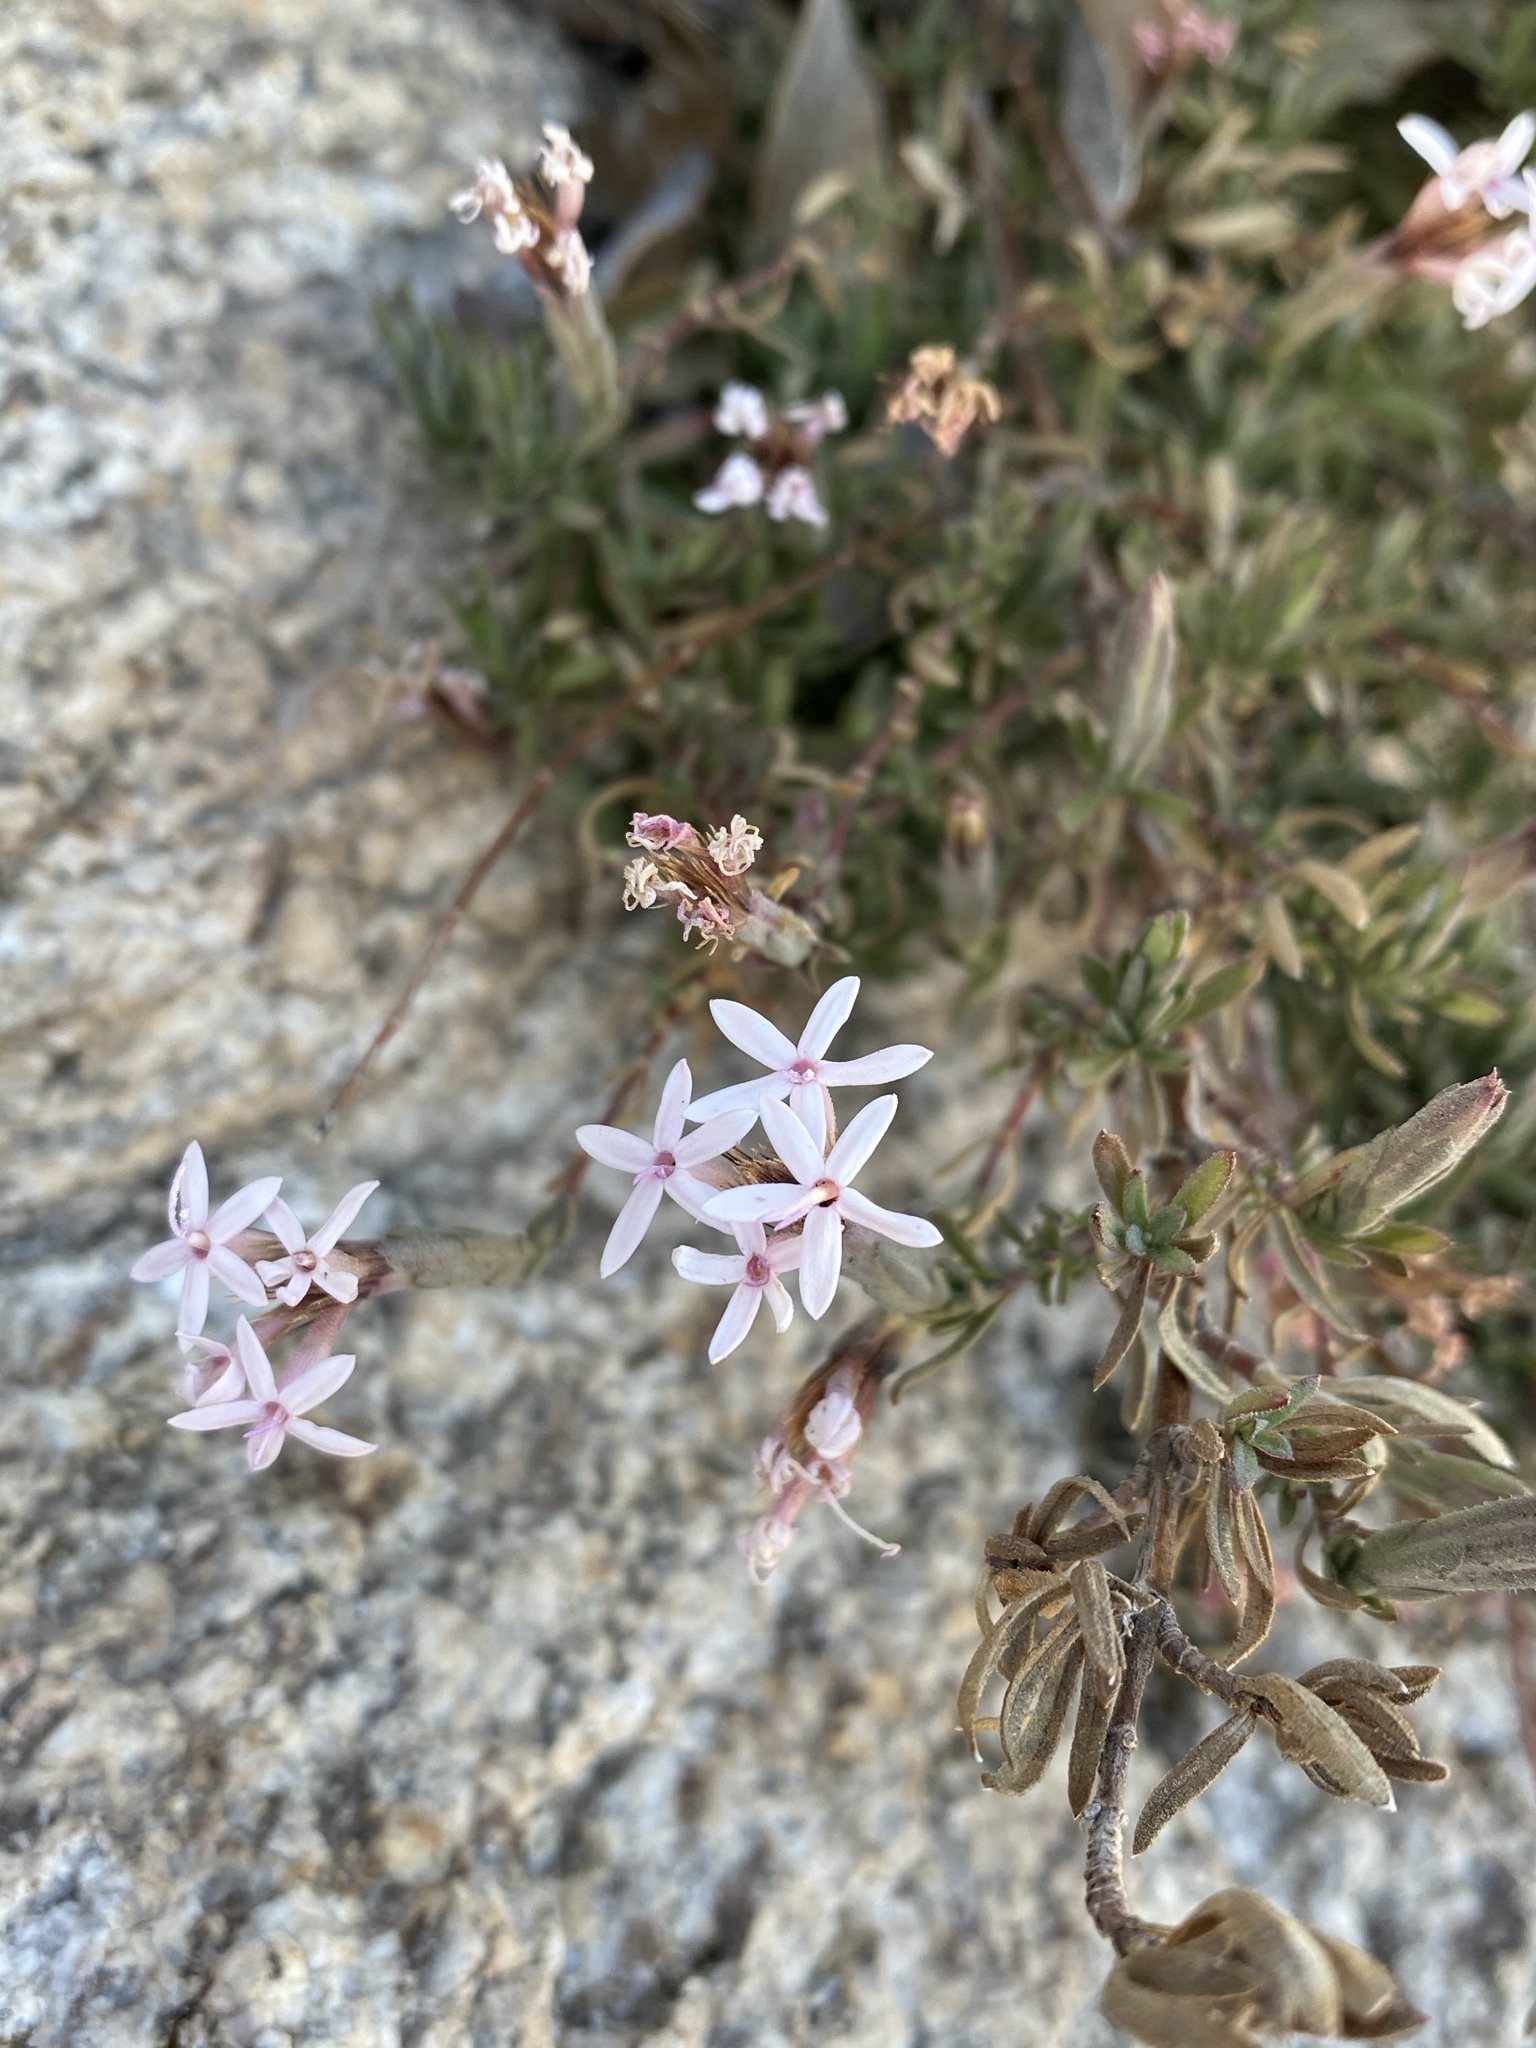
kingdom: Plantae
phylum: Tracheophyta
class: Magnoliopsida
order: Asterales
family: Asteraceae
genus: Carphochaete
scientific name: Carphochaete bigelovii
